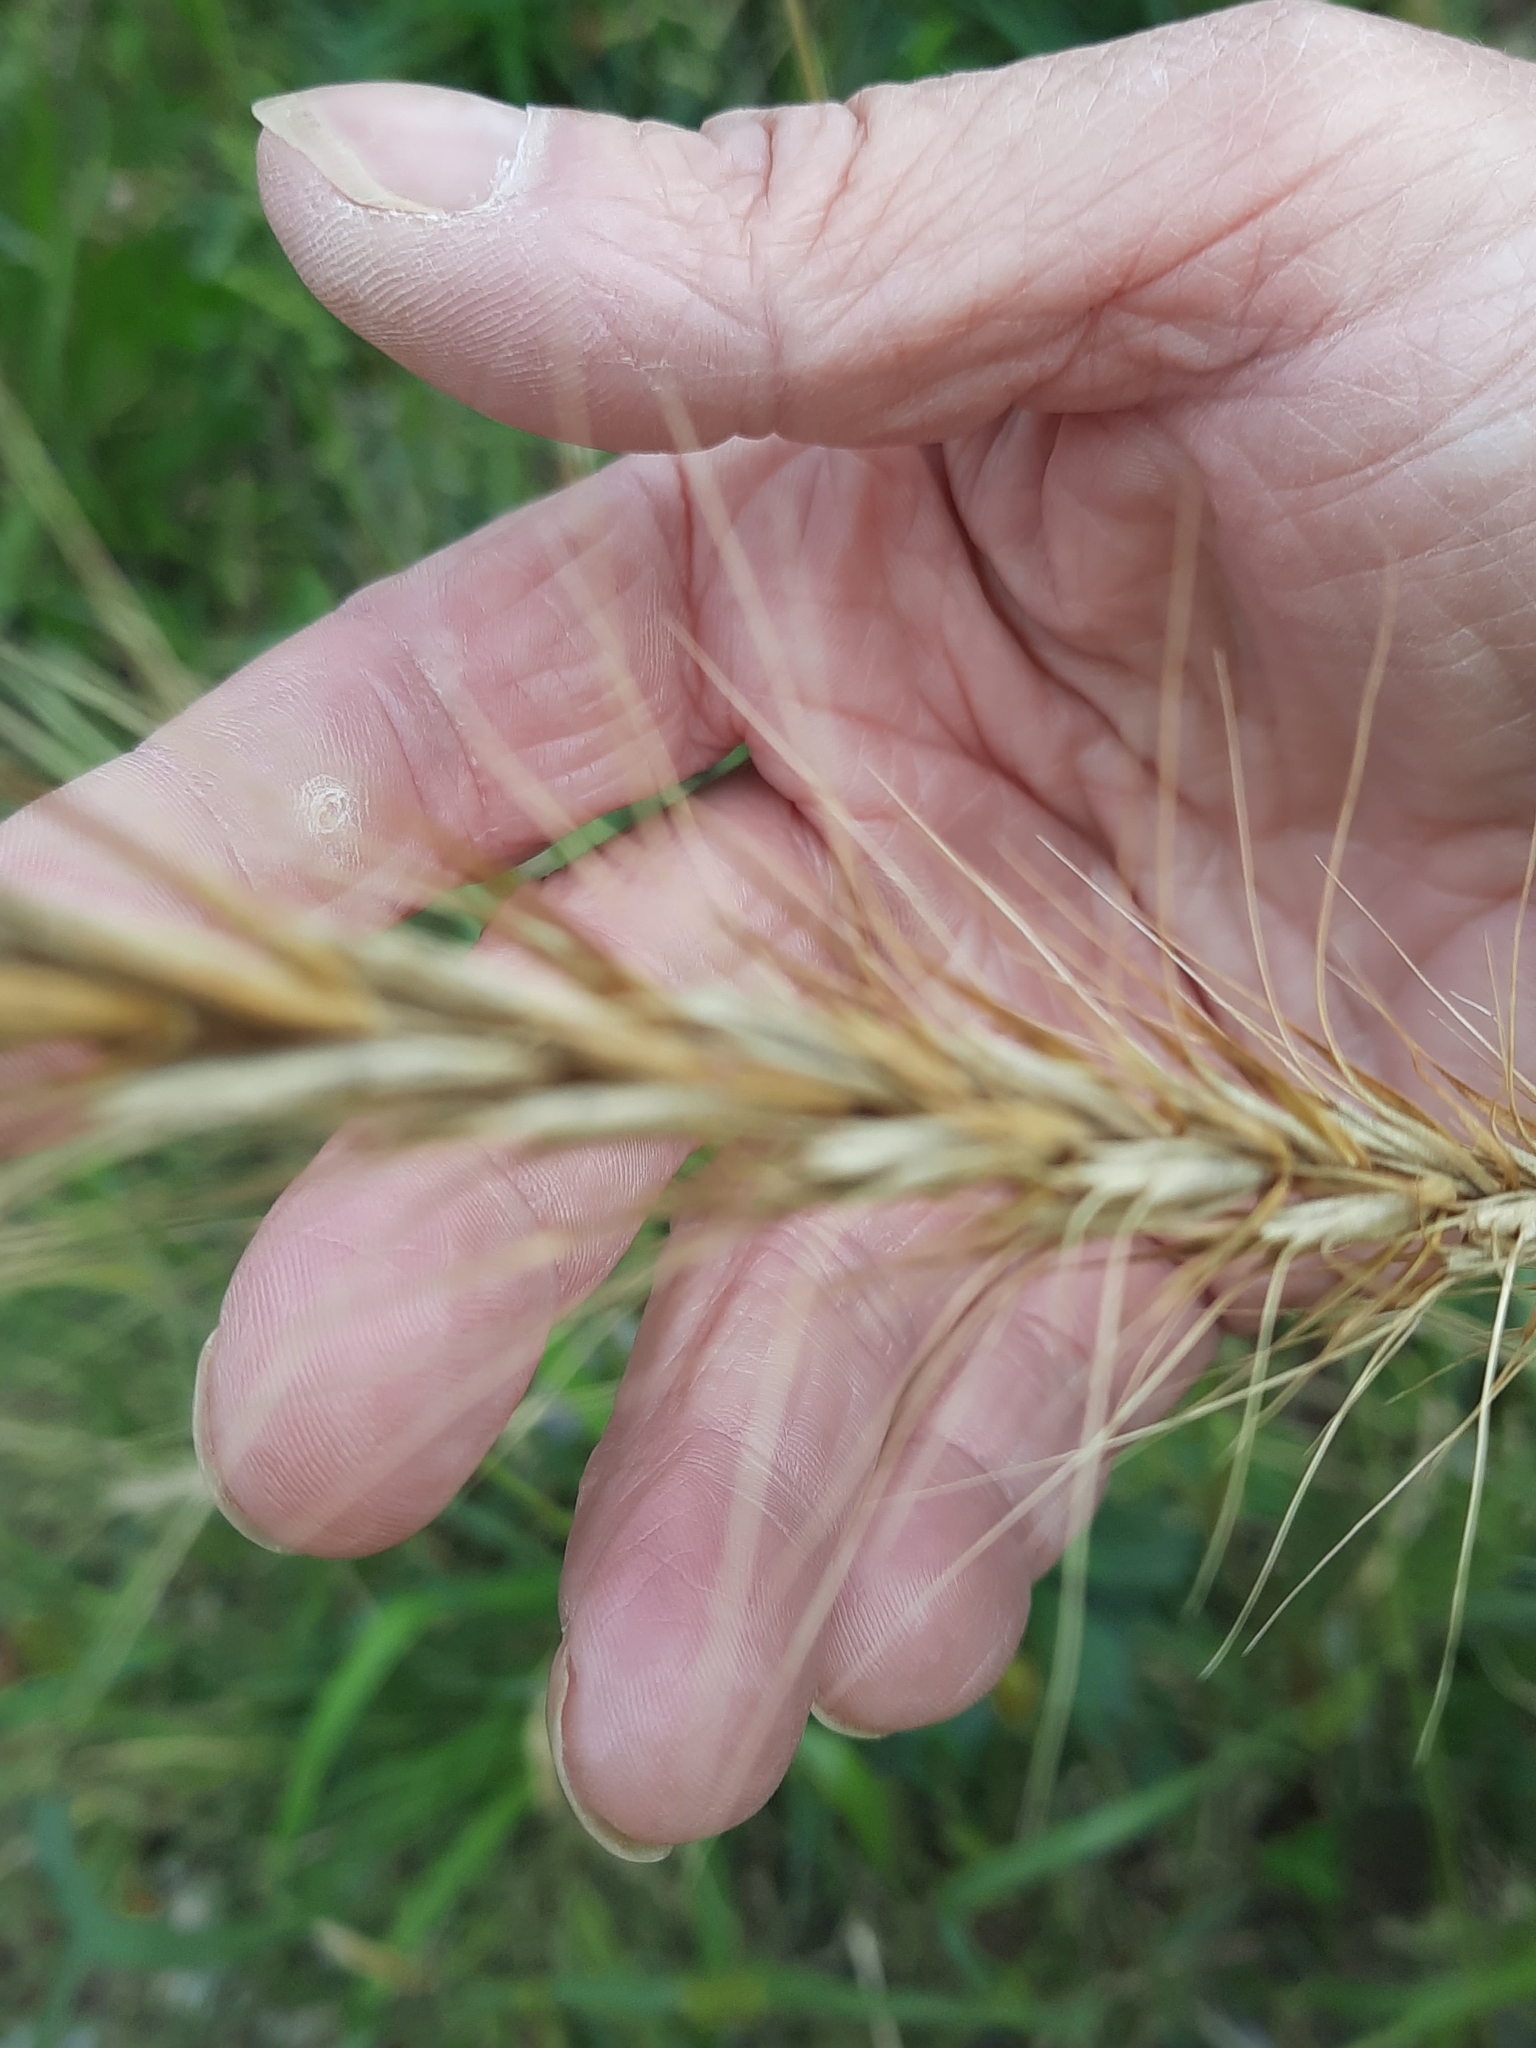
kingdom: Plantae
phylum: Tracheophyta
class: Liliopsida
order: Poales
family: Poaceae
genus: Elymus
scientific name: Elymus canadensis
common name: Canada wild rye
